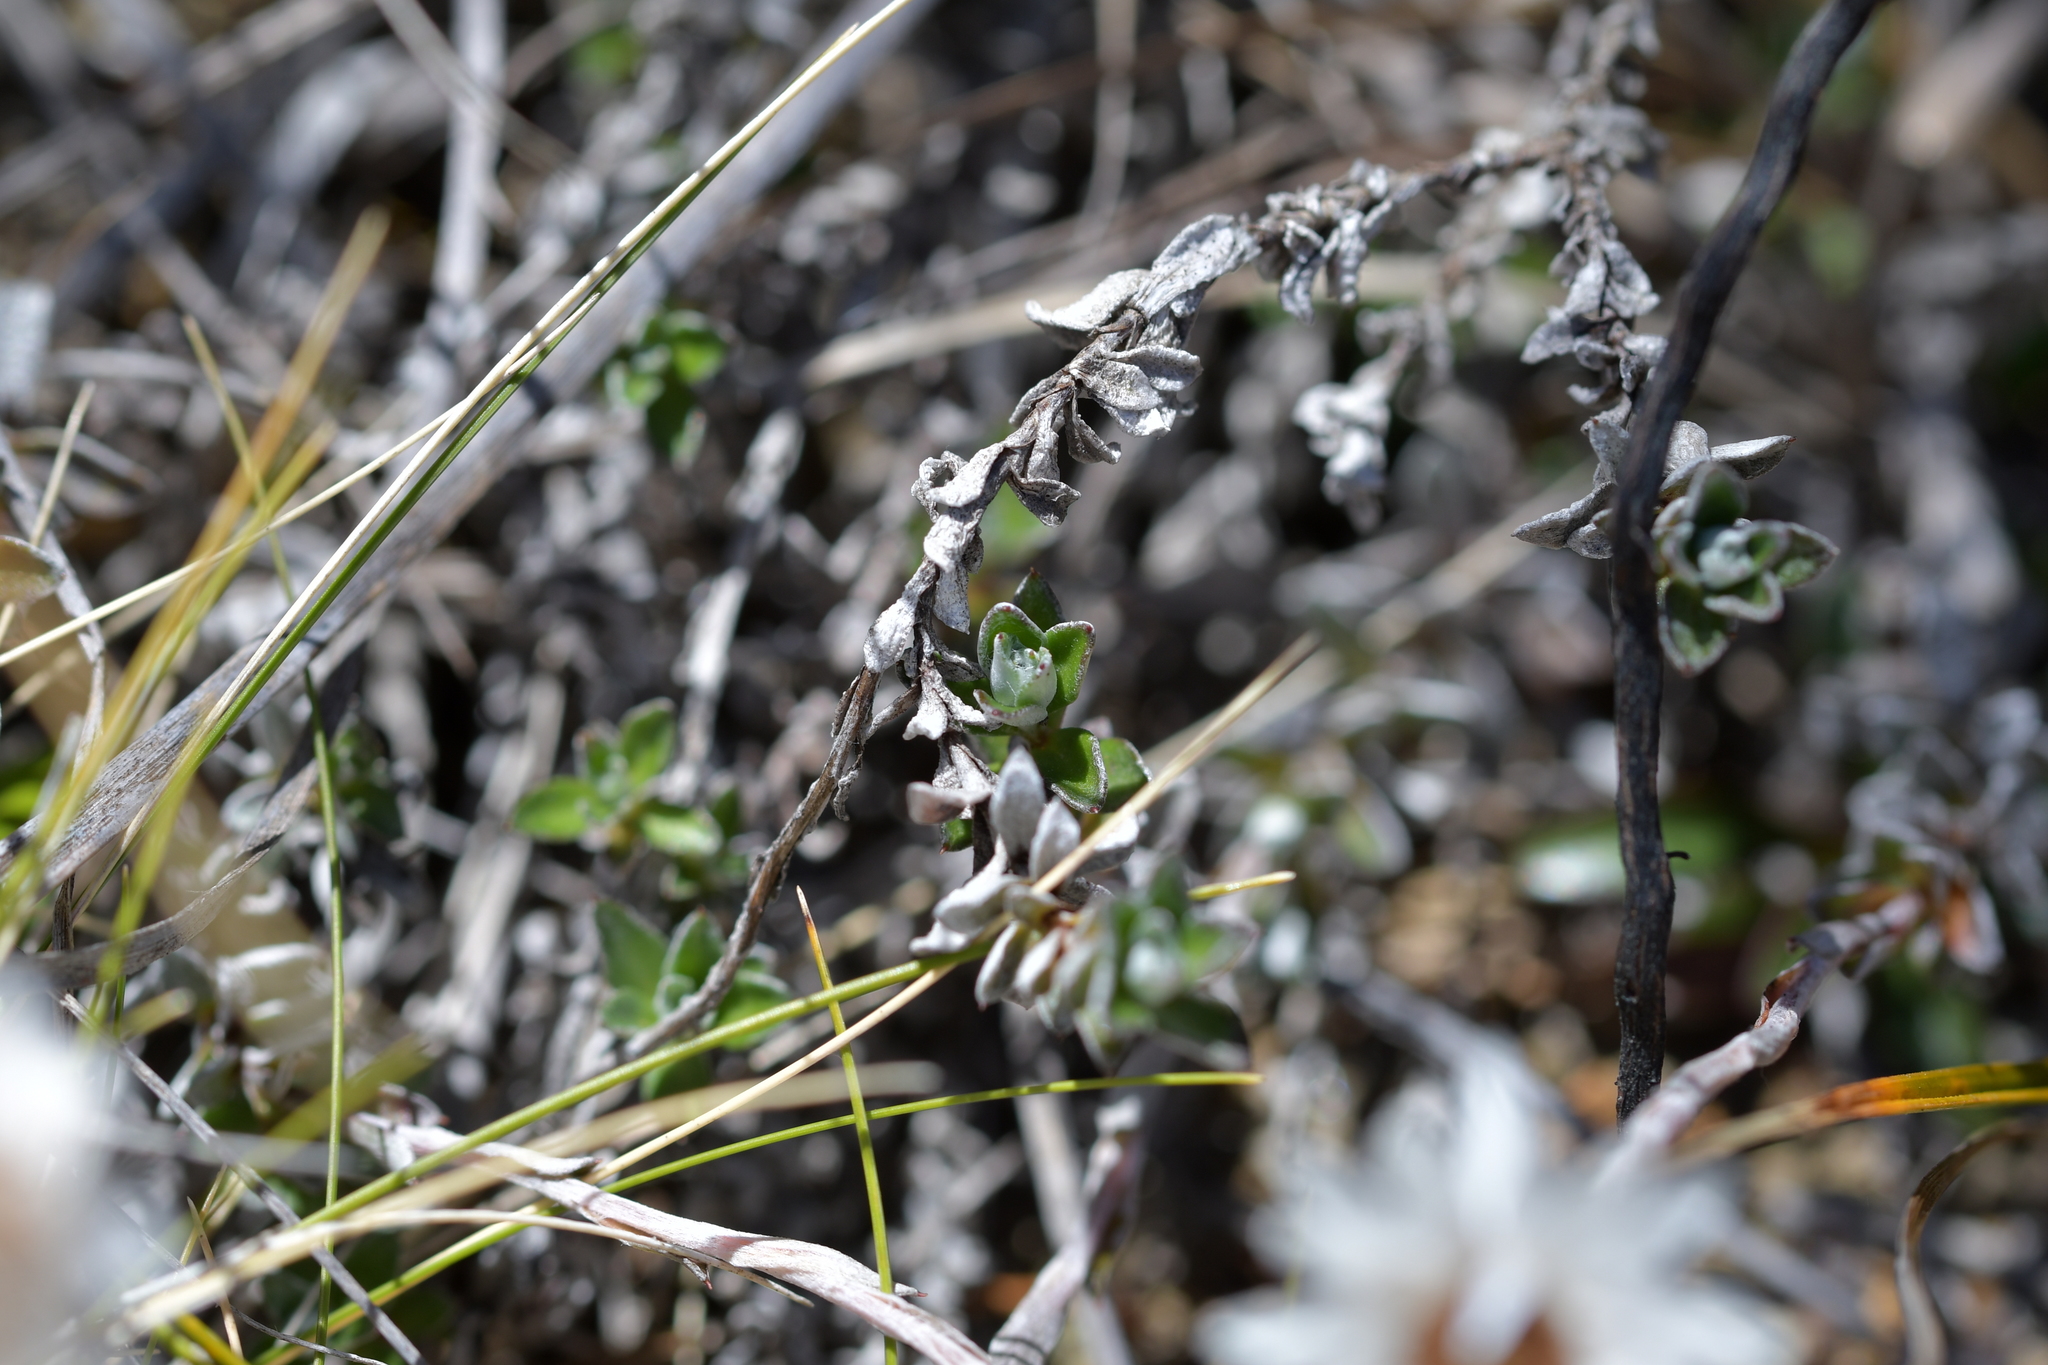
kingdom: Plantae
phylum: Tracheophyta
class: Magnoliopsida
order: Asterales
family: Asteraceae
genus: Anaphalioides
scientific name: Anaphalioides bellidioides
